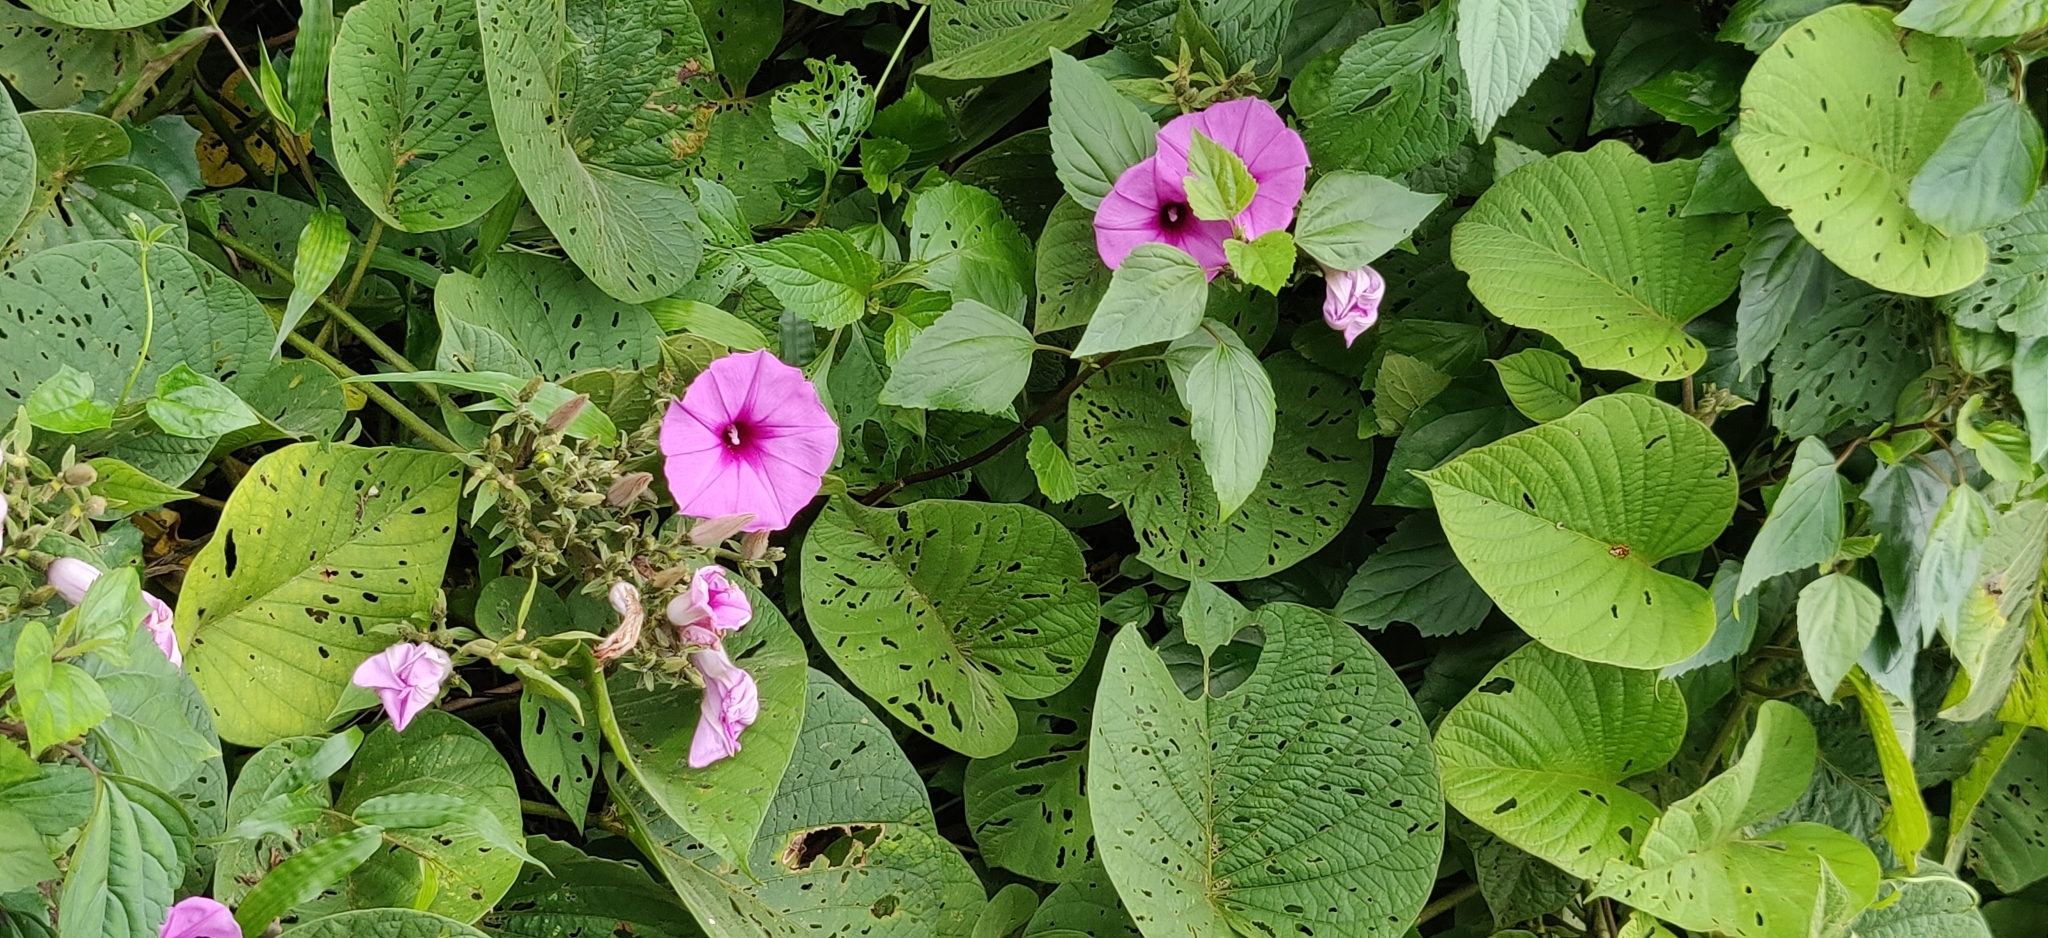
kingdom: Plantae
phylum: Tracheophyta
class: Magnoliopsida
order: Solanales
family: Convolvulaceae
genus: Argyreia
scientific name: Argyreia nervosa
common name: Elephant creeper
